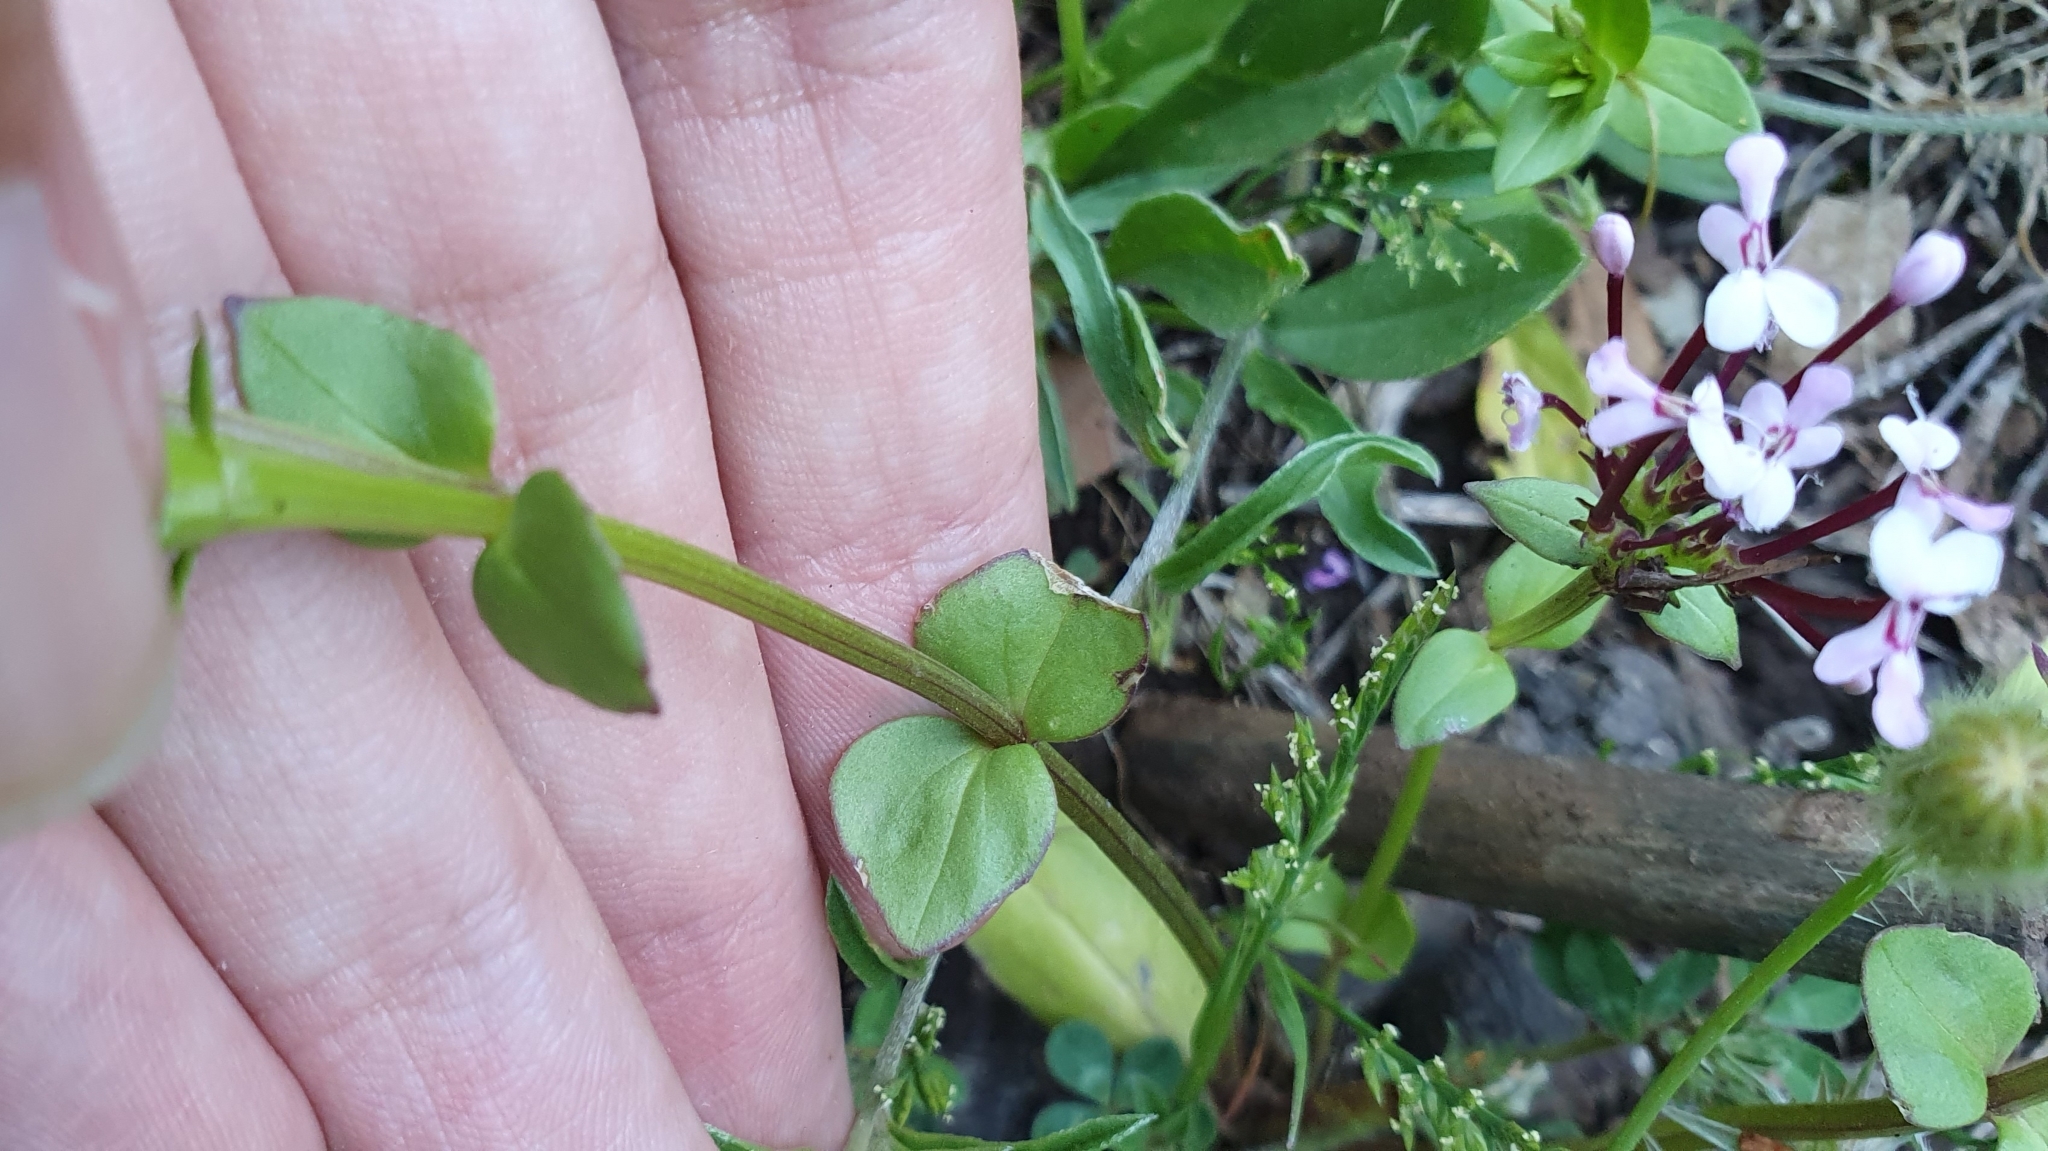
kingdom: Plantae
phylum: Tracheophyta
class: Magnoliopsida
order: Dipsacales
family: Caprifoliaceae
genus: Fedia
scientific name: Fedia graciliflora
